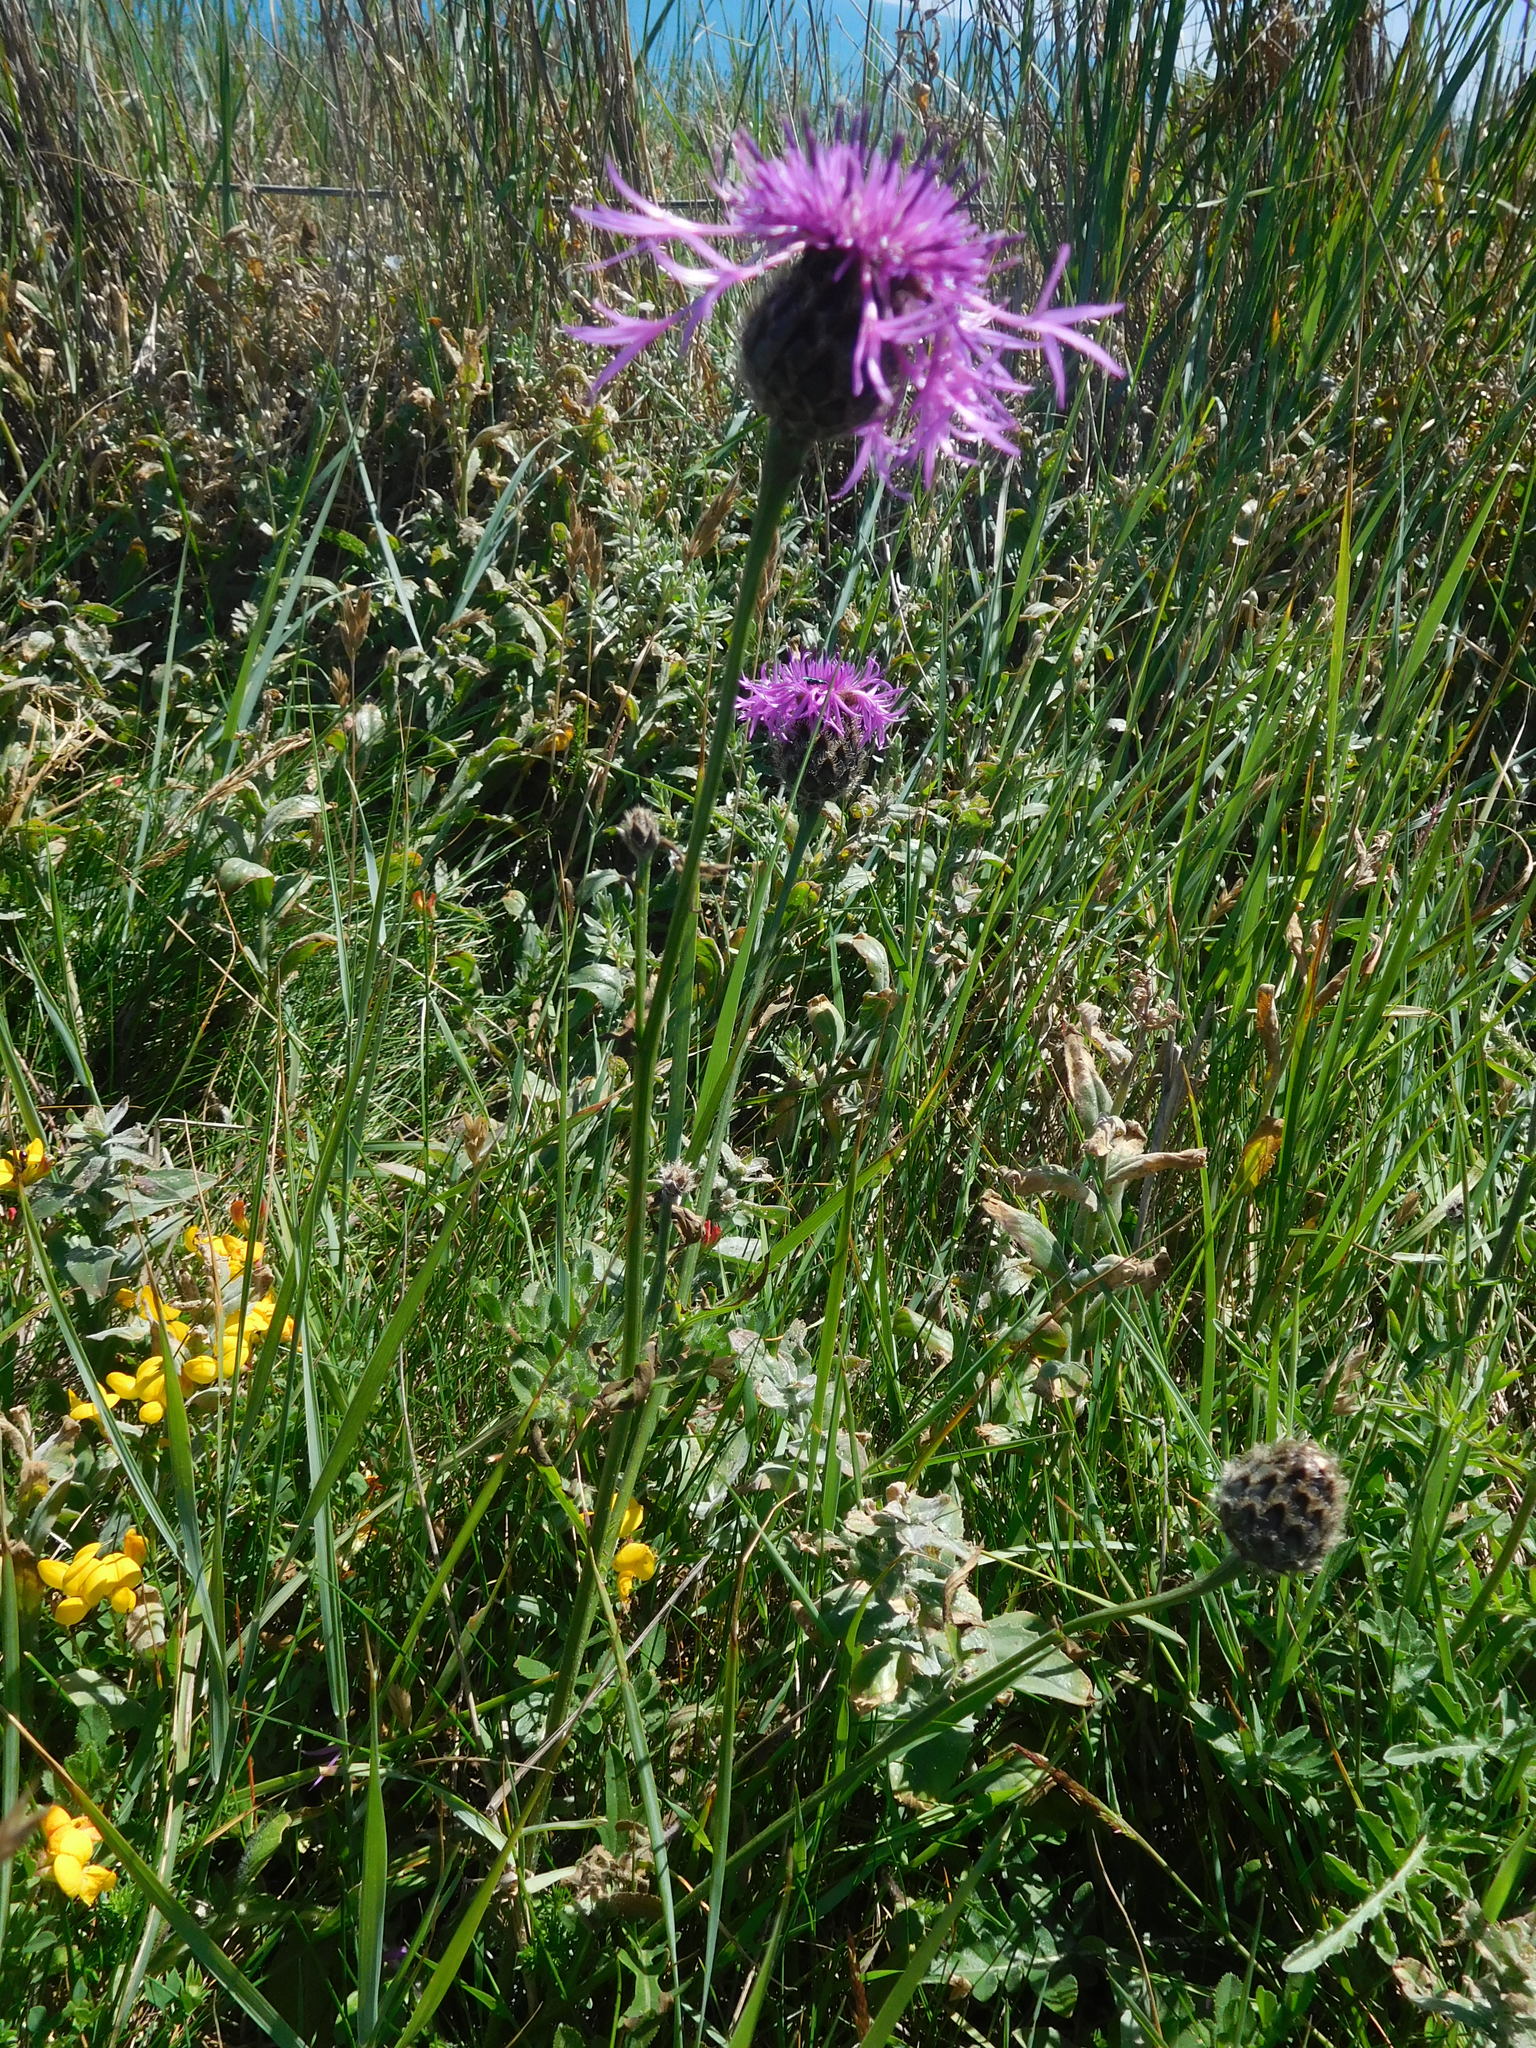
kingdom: Plantae
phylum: Tracheophyta
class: Magnoliopsida
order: Asterales
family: Asteraceae
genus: Centaurea
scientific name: Centaurea scabiosa
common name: Greater knapweed
